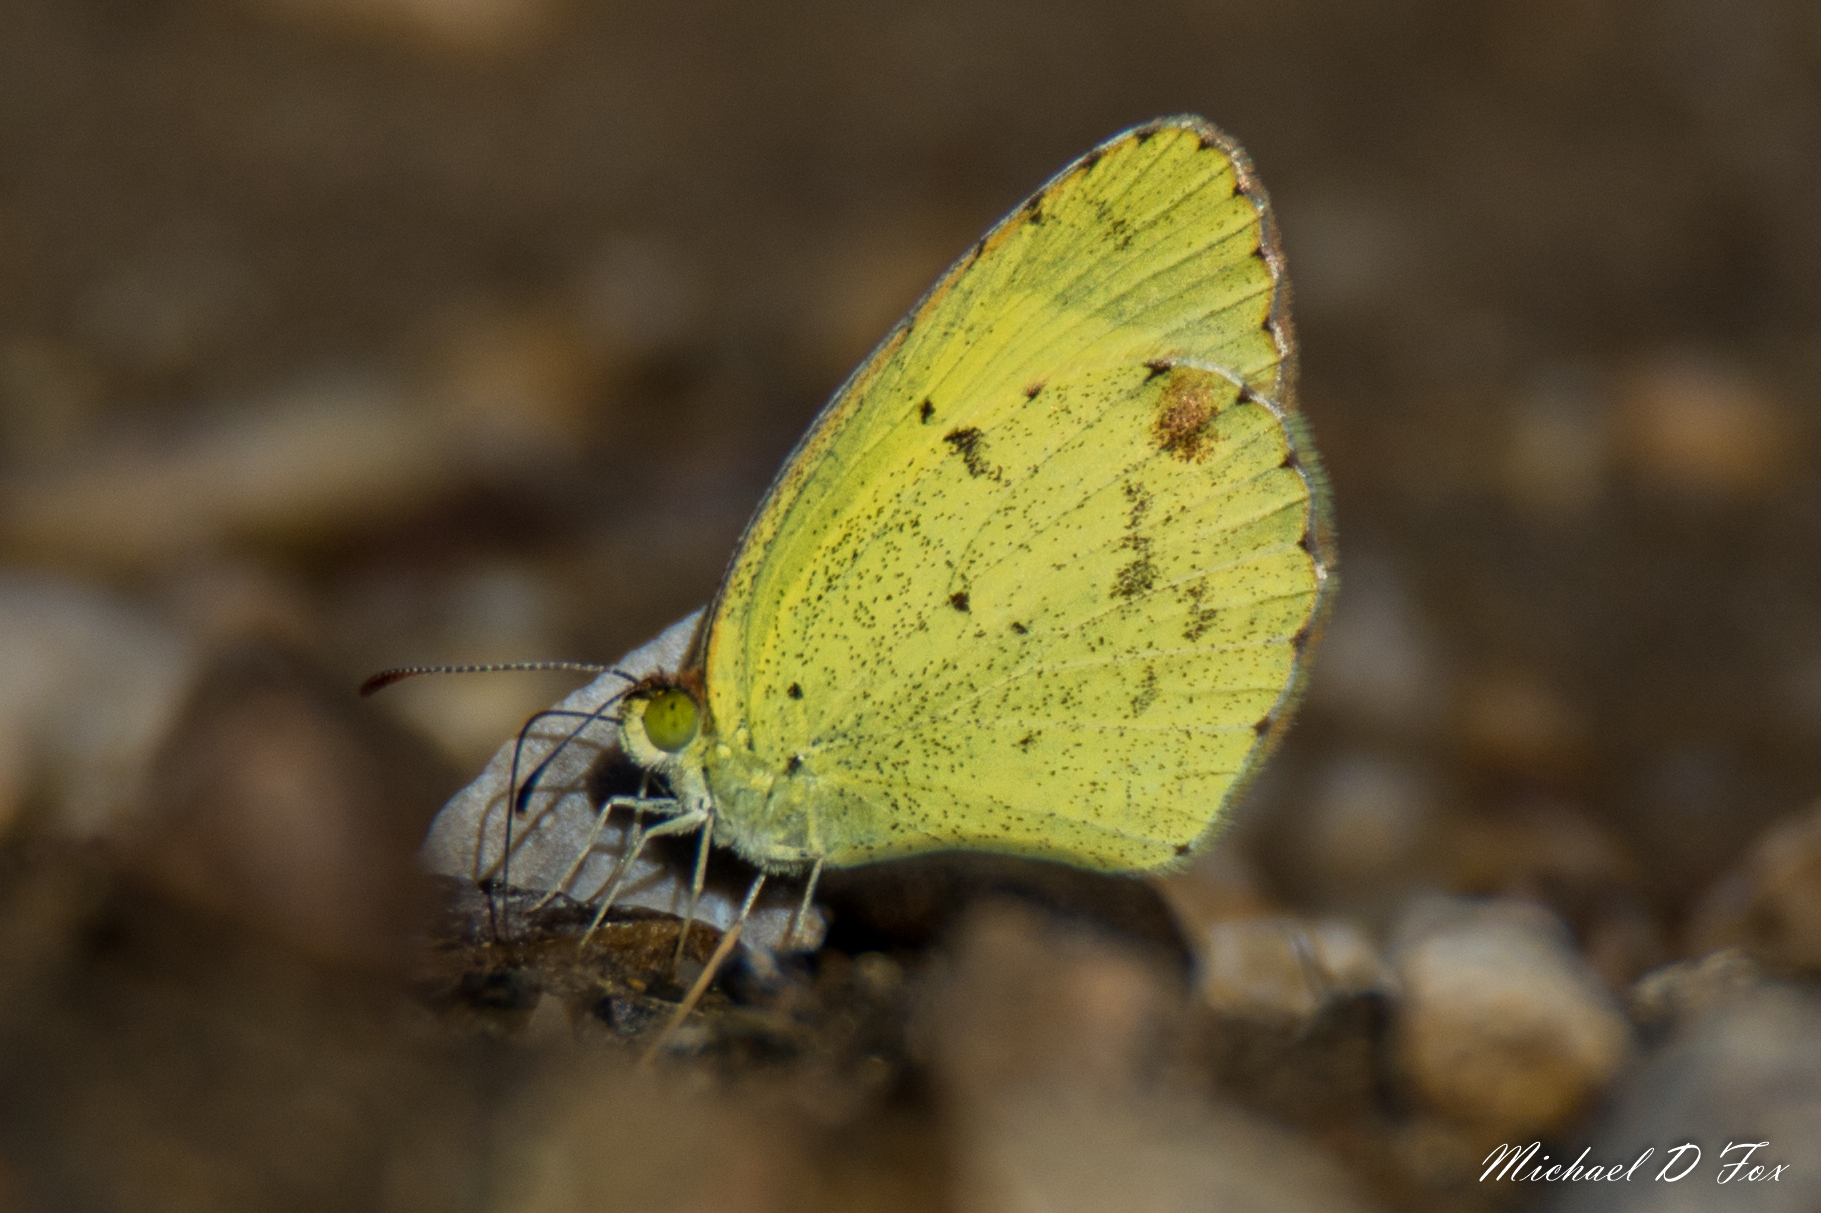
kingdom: Animalia
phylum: Arthropoda
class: Insecta
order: Lepidoptera
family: Pieridae
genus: Pyrisitia
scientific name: Pyrisitia lisa
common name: Little yellow
